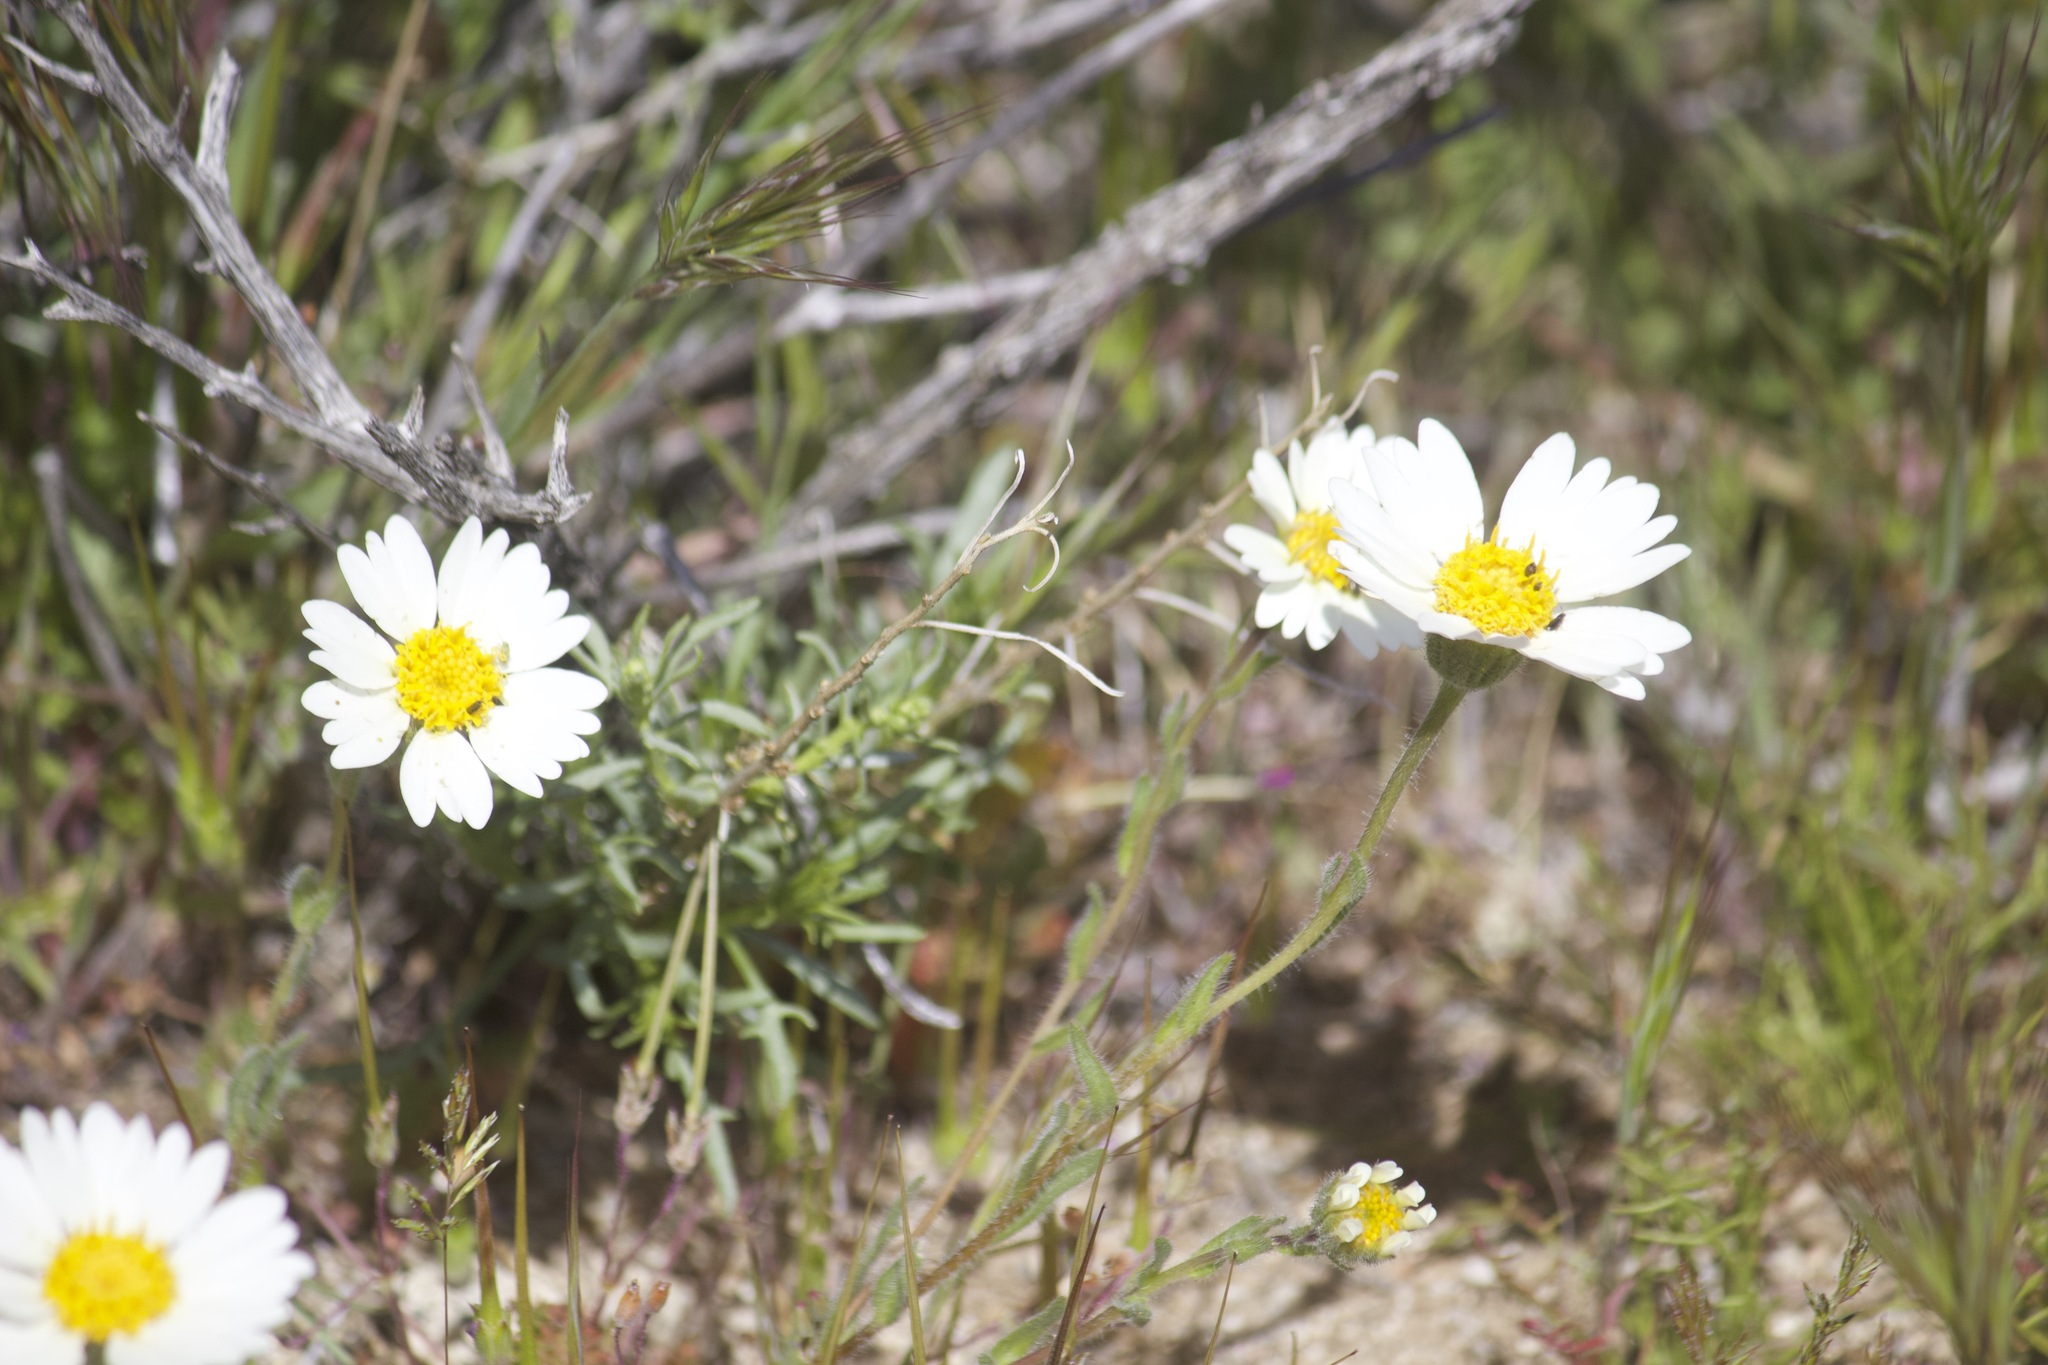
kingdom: Plantae
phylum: Tracheophyta
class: Magnoliopsida
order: Asterales
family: Asteraceae
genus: Layia
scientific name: Layia glandulosa
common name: White layia
